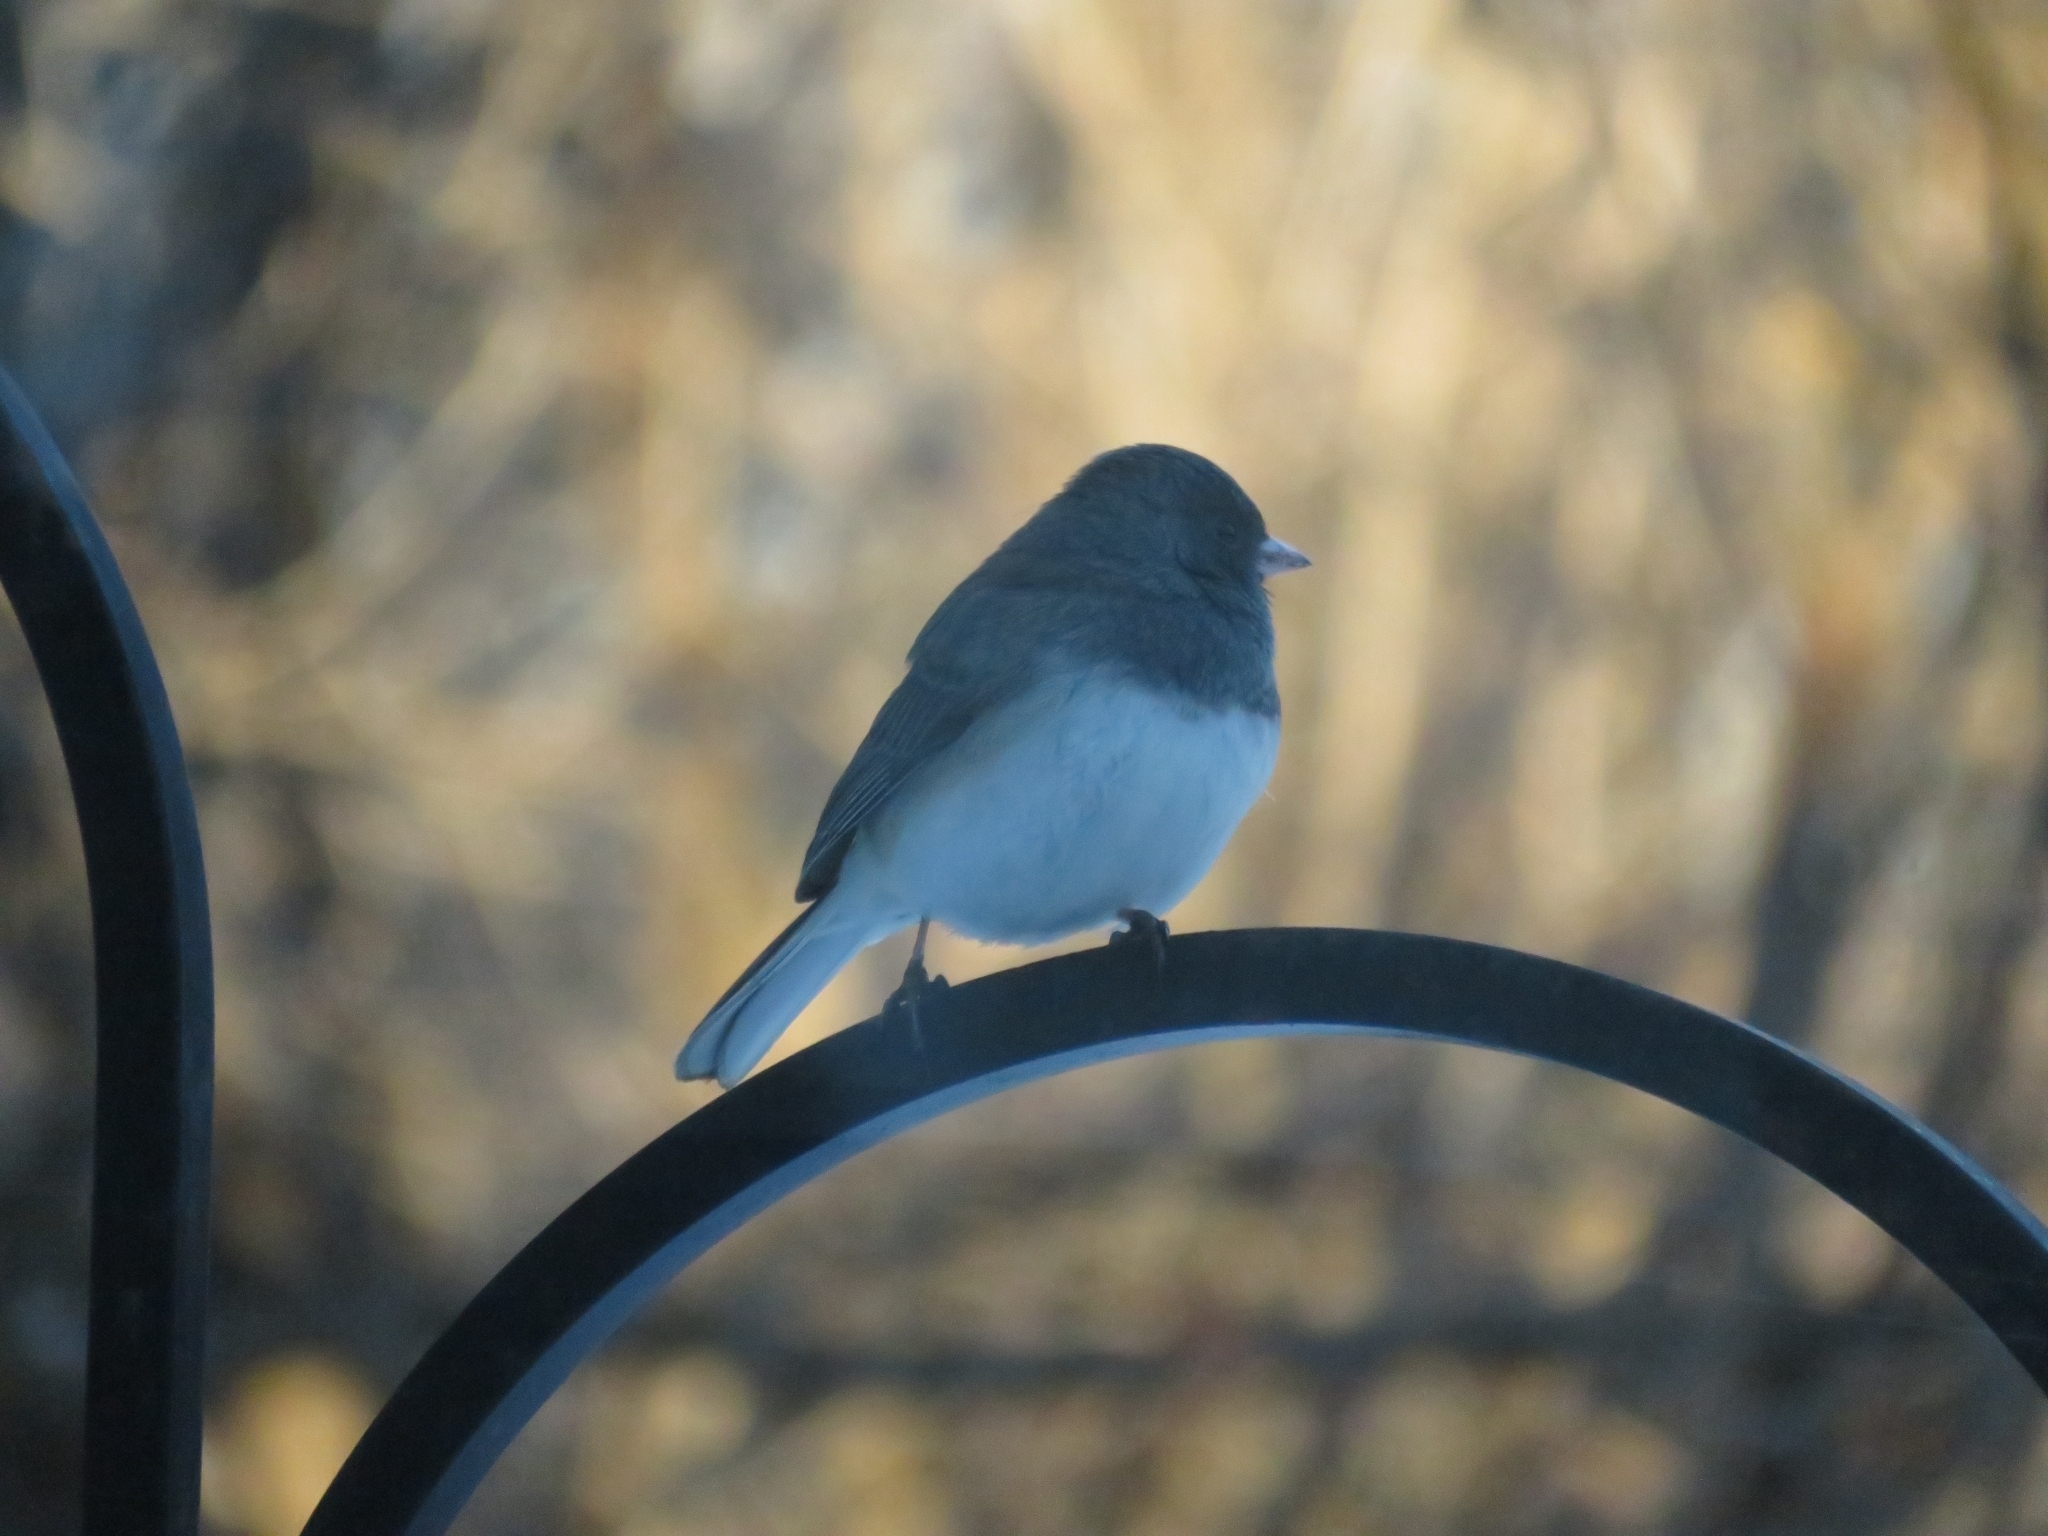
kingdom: Animalia
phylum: Chordata
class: Aves
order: Passeriformes
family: Passerellidae
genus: Junco
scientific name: Junco hyemalis
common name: Dark-eyed junco
